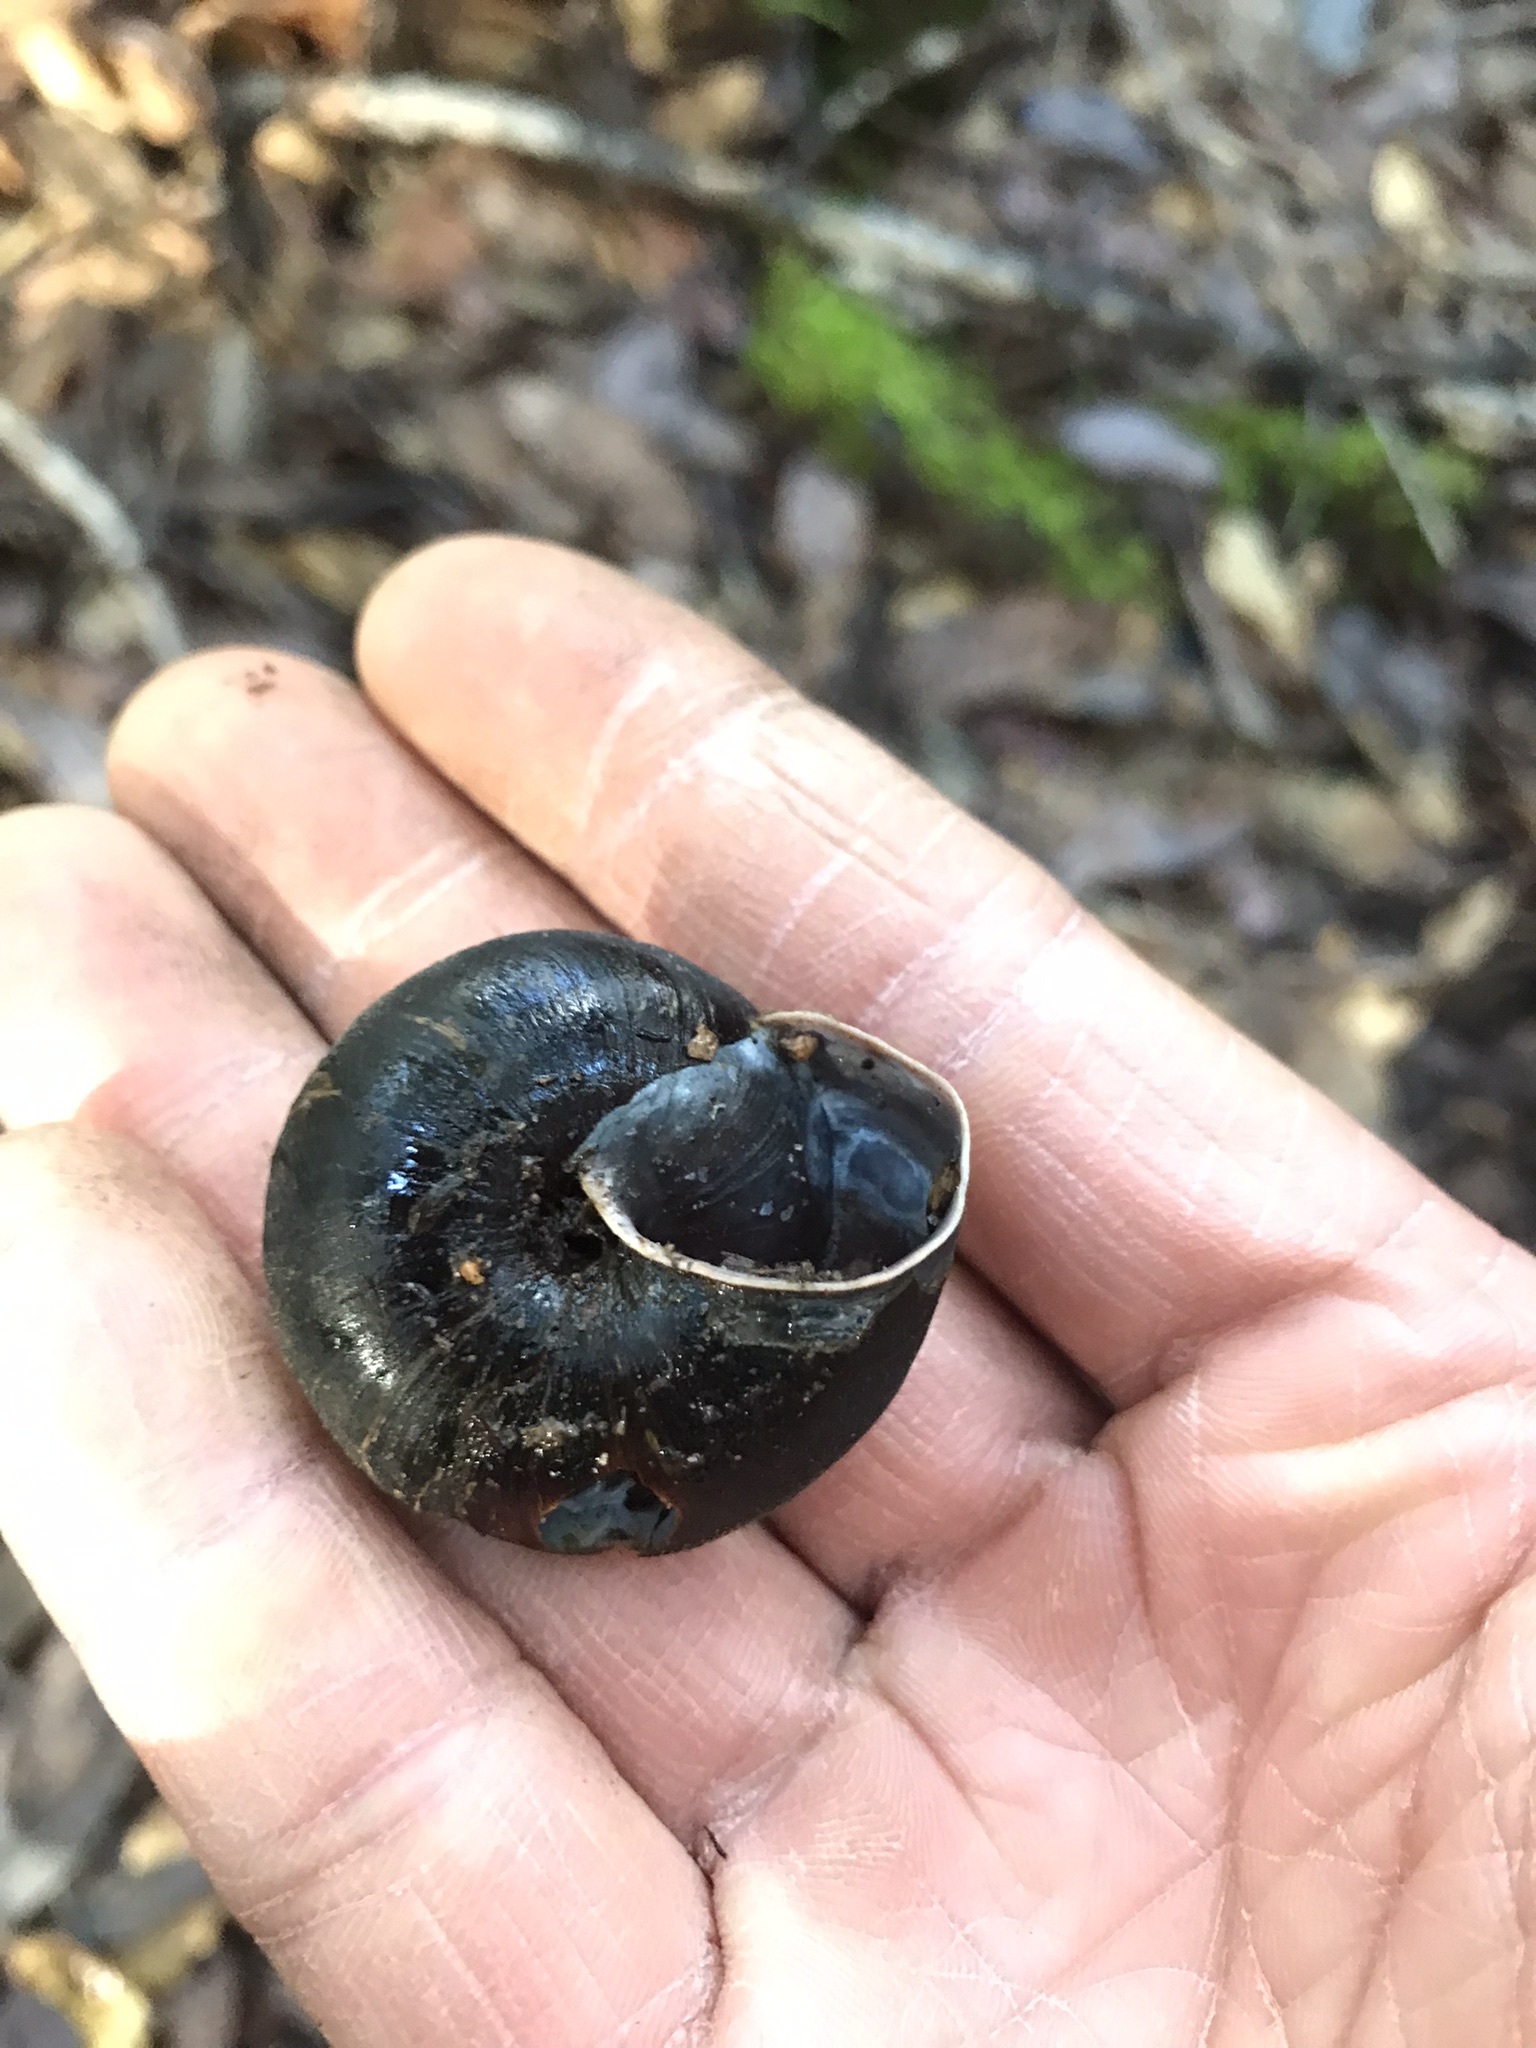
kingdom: Animalia
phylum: Mollusca
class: Gastropoda
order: Stylommatophora
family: Xanthonychidae
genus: Monadenia
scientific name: Monadenia infumata
